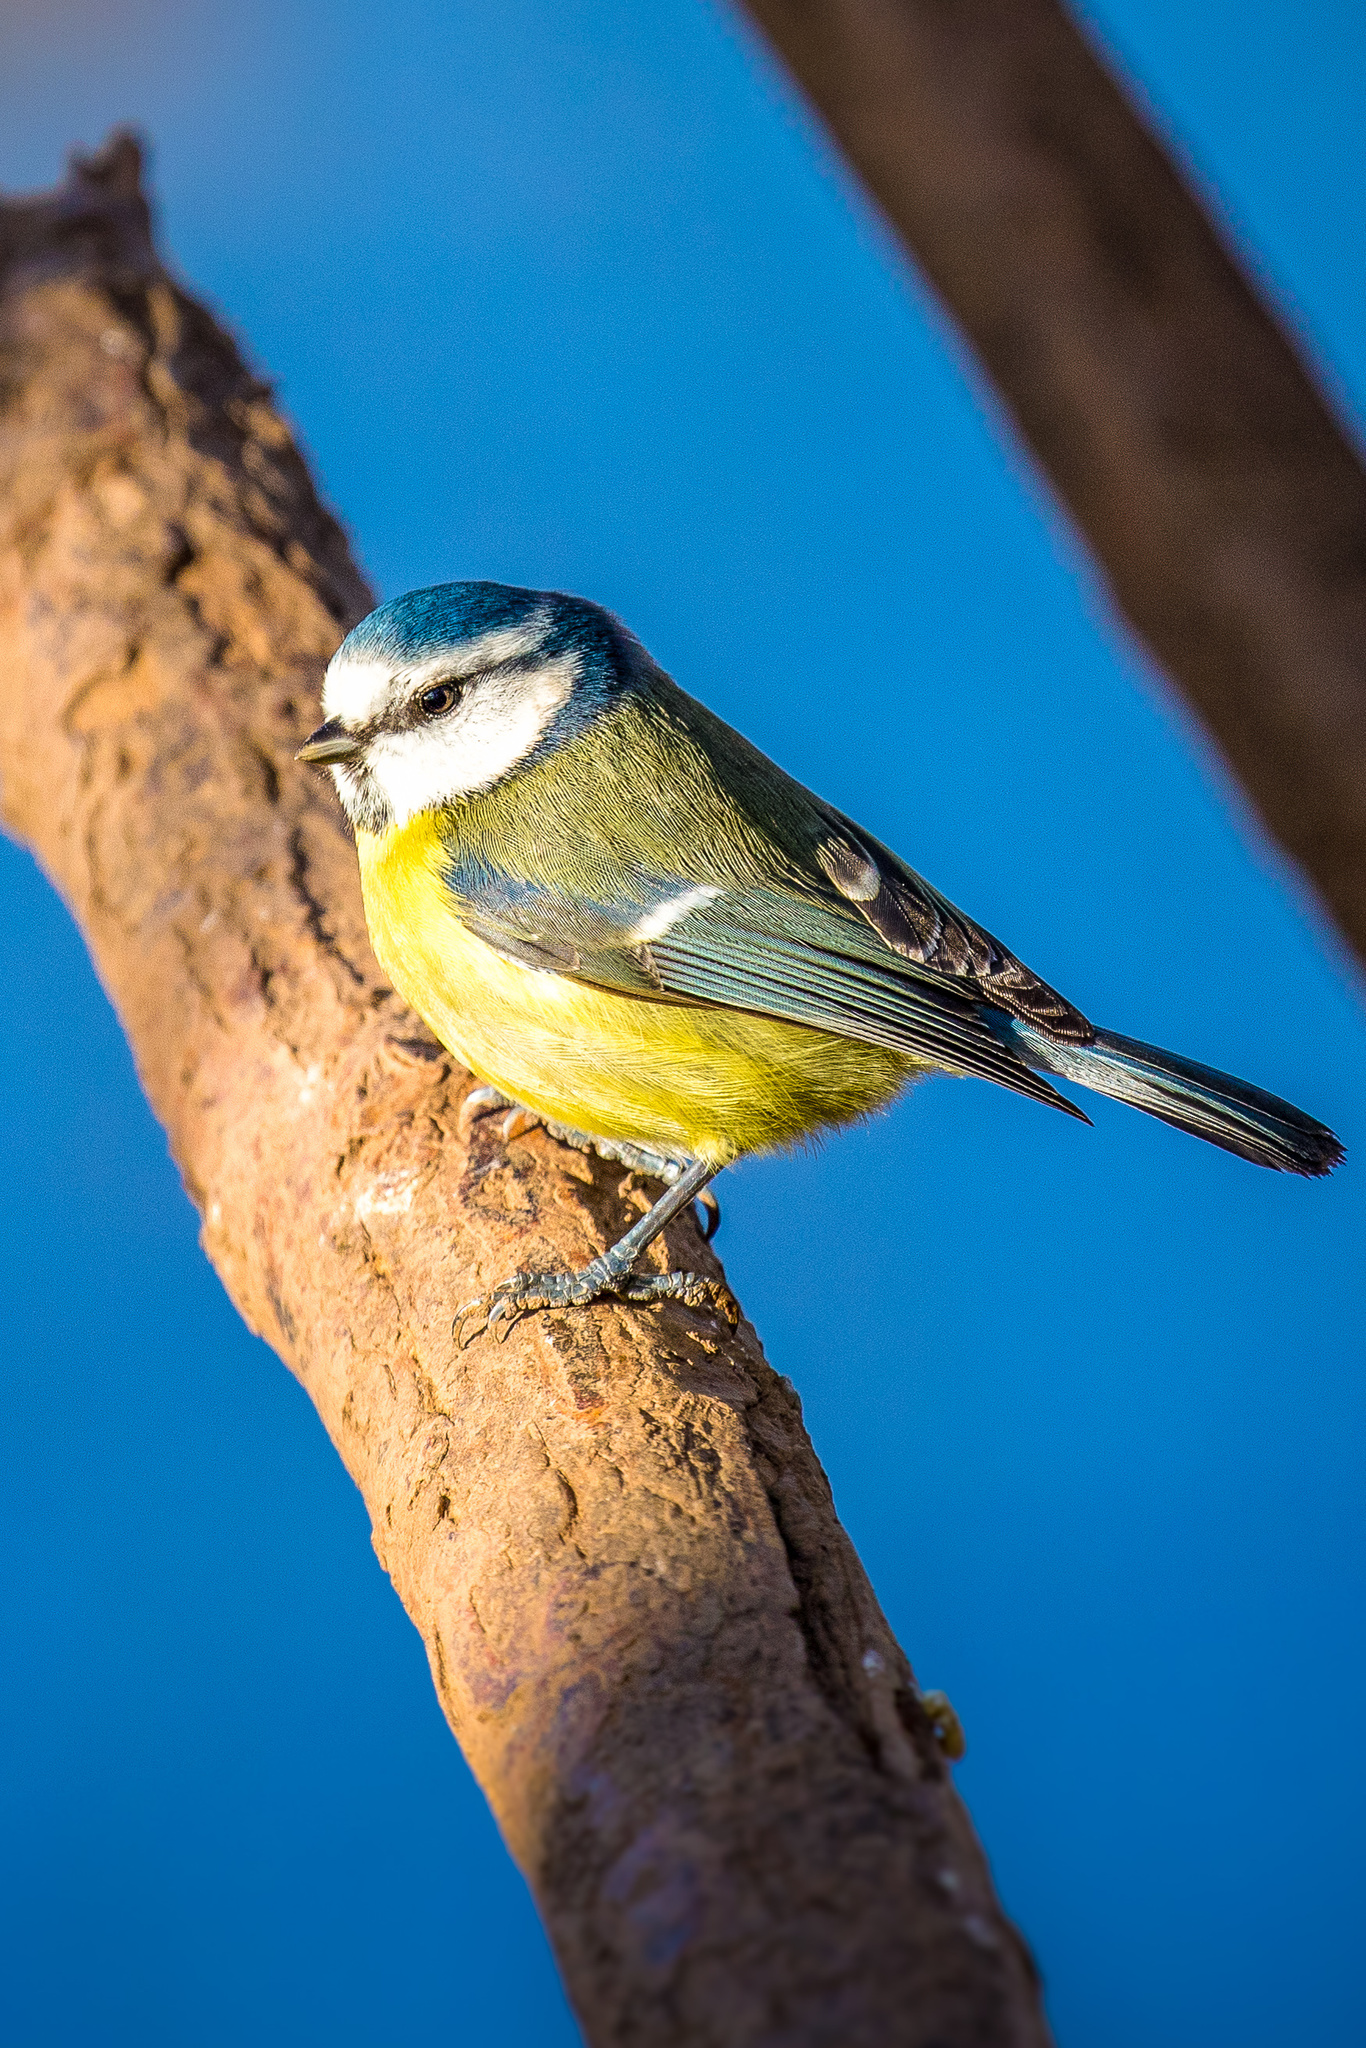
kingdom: Animalia
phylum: Chordata
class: Aves
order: Passeriformes
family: Paridae
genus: Cyanistes
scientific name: Cyanistes caeruleus
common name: Eurasian blue tit
